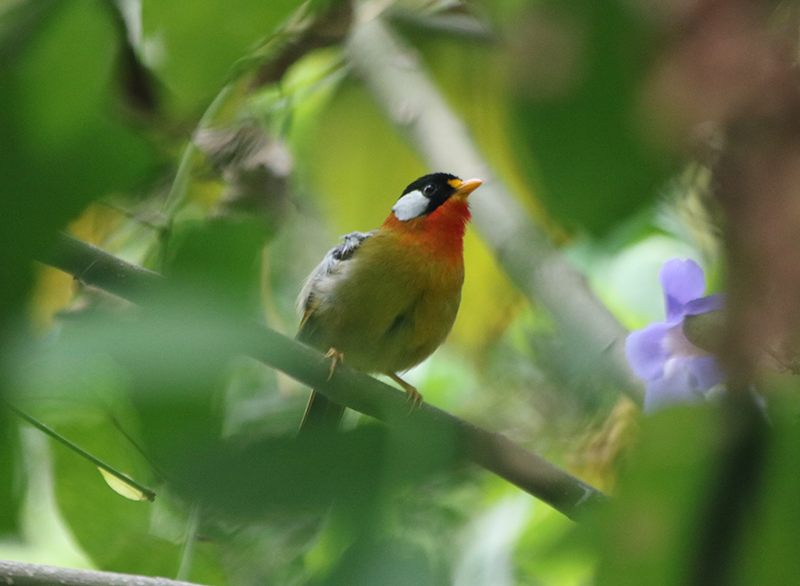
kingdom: Animalia
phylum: Chordata
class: Aves
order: Passeriformes
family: Leiothrichidae
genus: Leiothrix
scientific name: Leiothrix argentauris
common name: Silver-eared mesia
